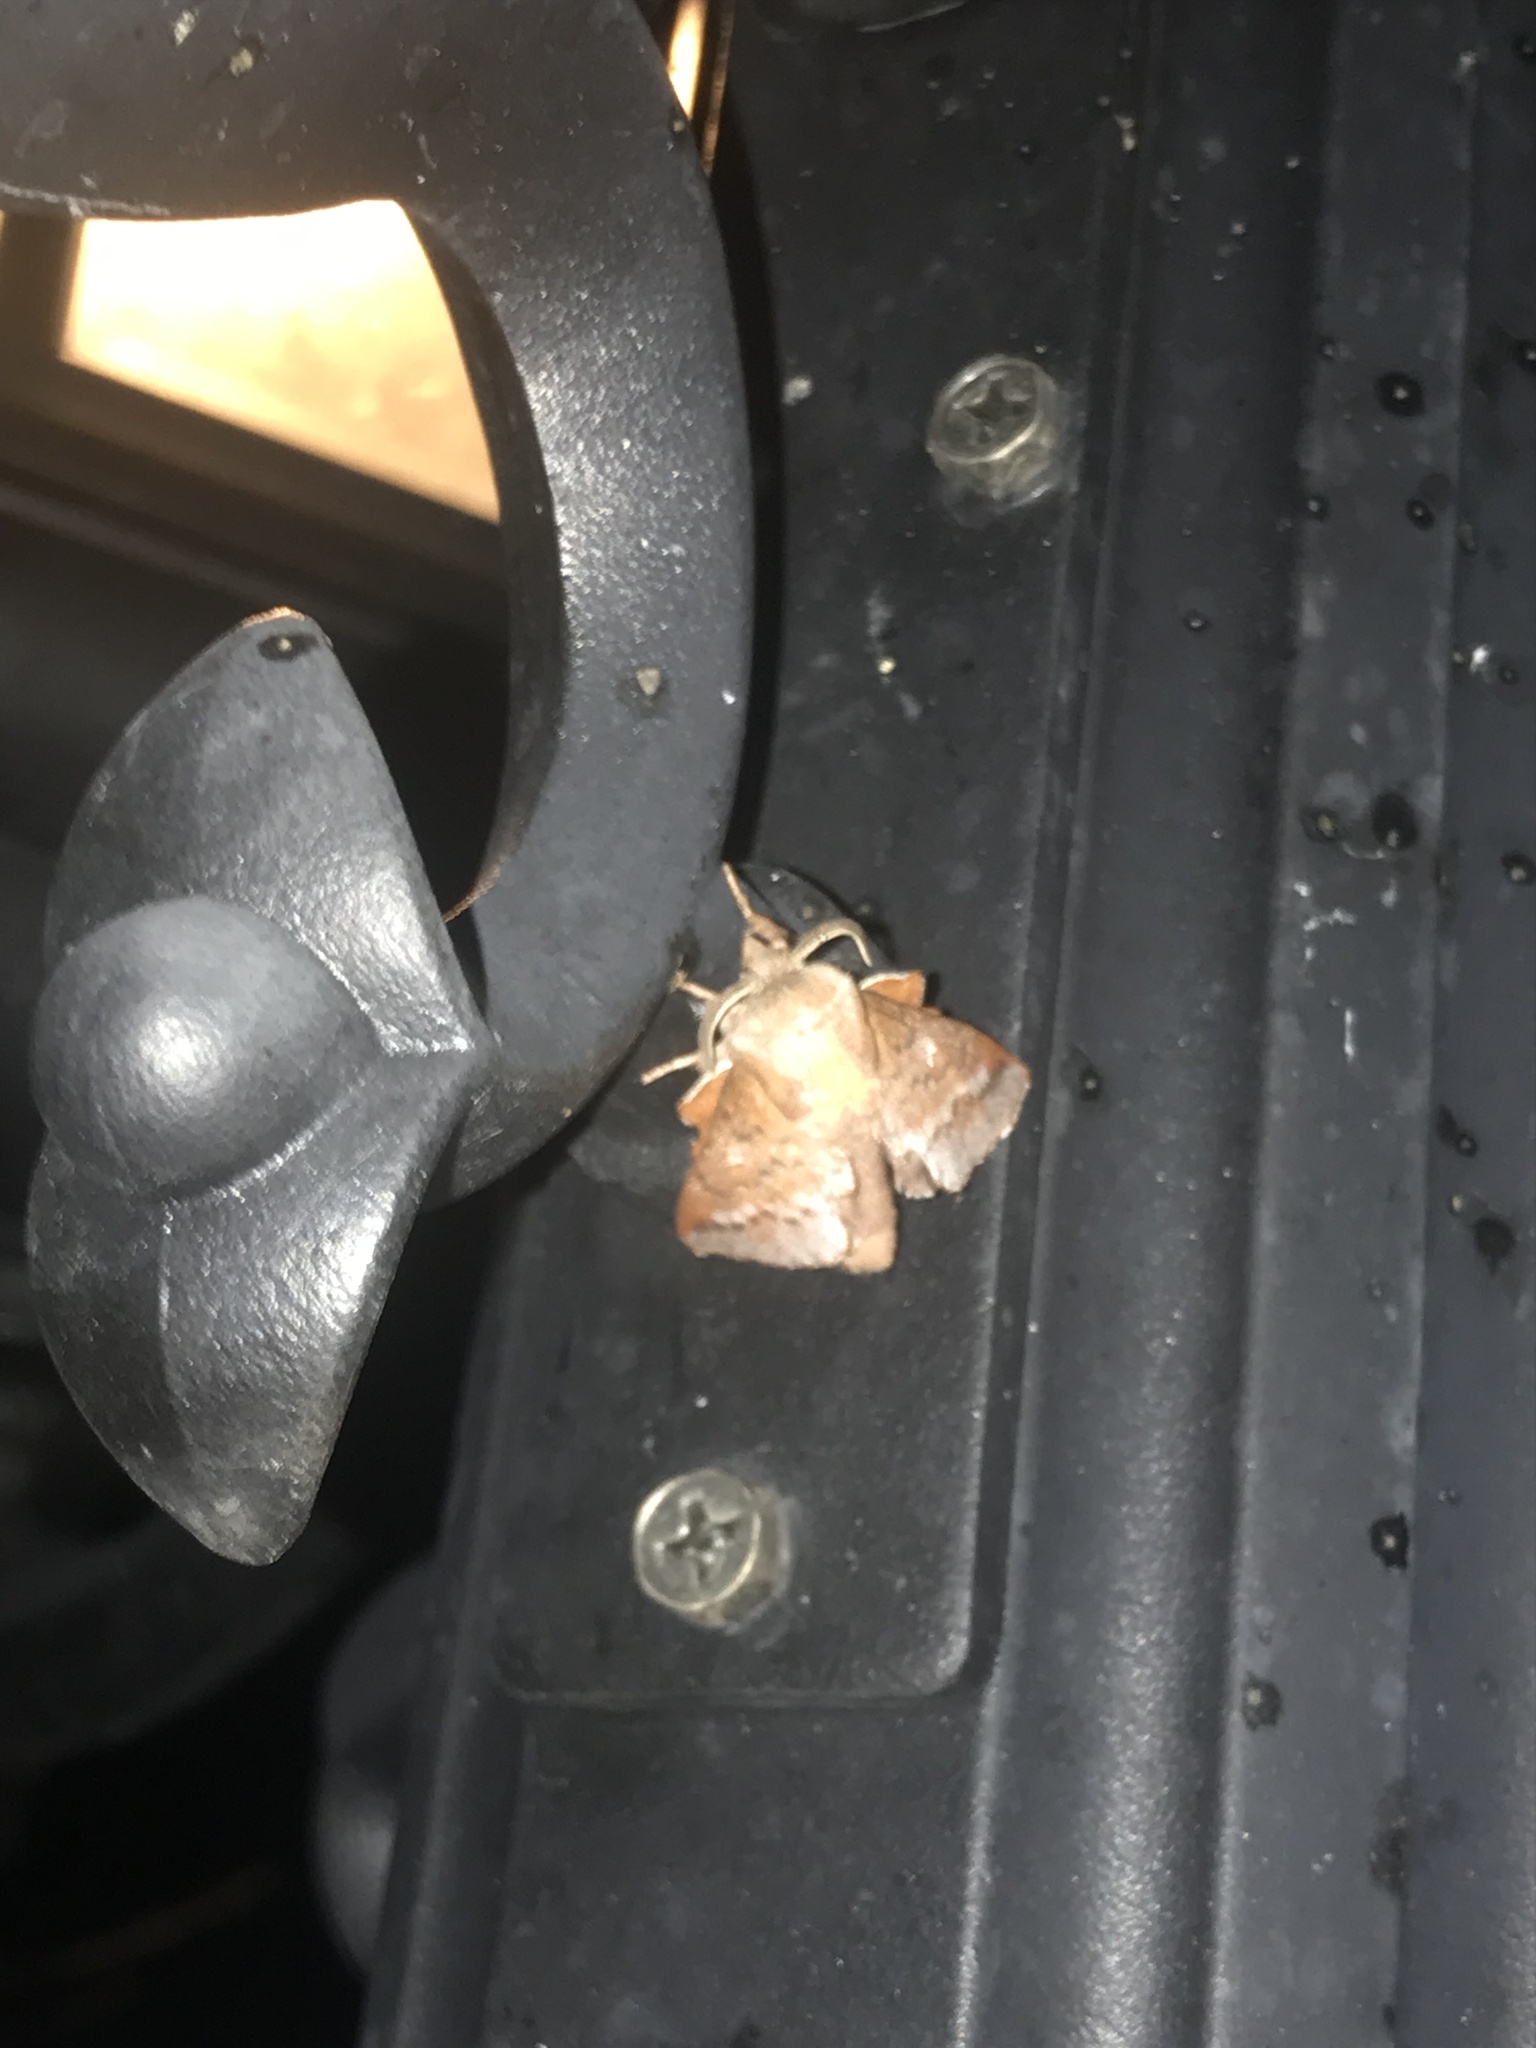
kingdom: Animalia
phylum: Arthropoda
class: Insecta
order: Lepidoptera
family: Lasiocampidae
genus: Phyllodesma
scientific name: Phyllodesma americana
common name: American lappet moth
